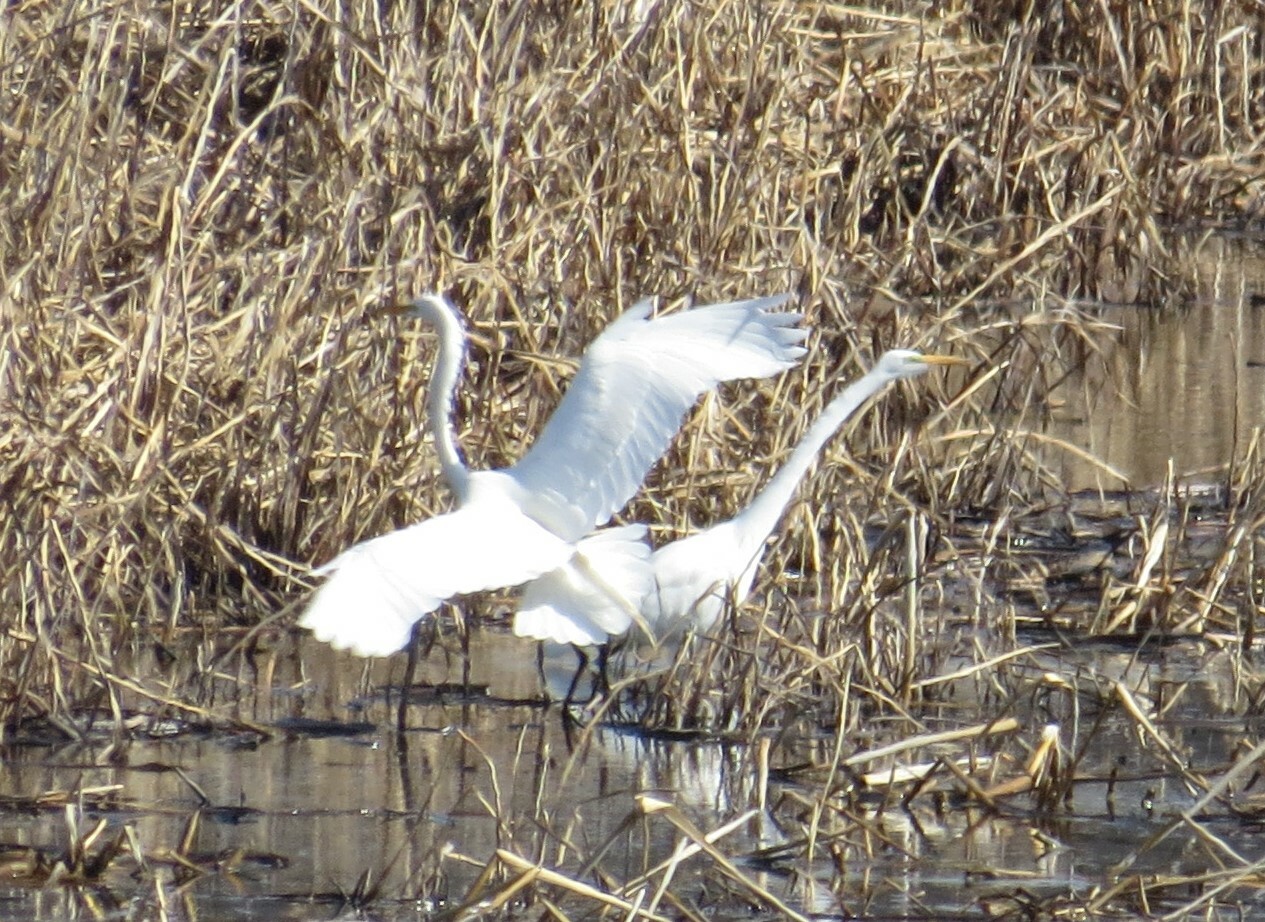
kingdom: Animalia
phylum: Chordata
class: Aves
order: Pelecaniformes
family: Ardeidae
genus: Ardea
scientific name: Ardea alba
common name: Great egret
